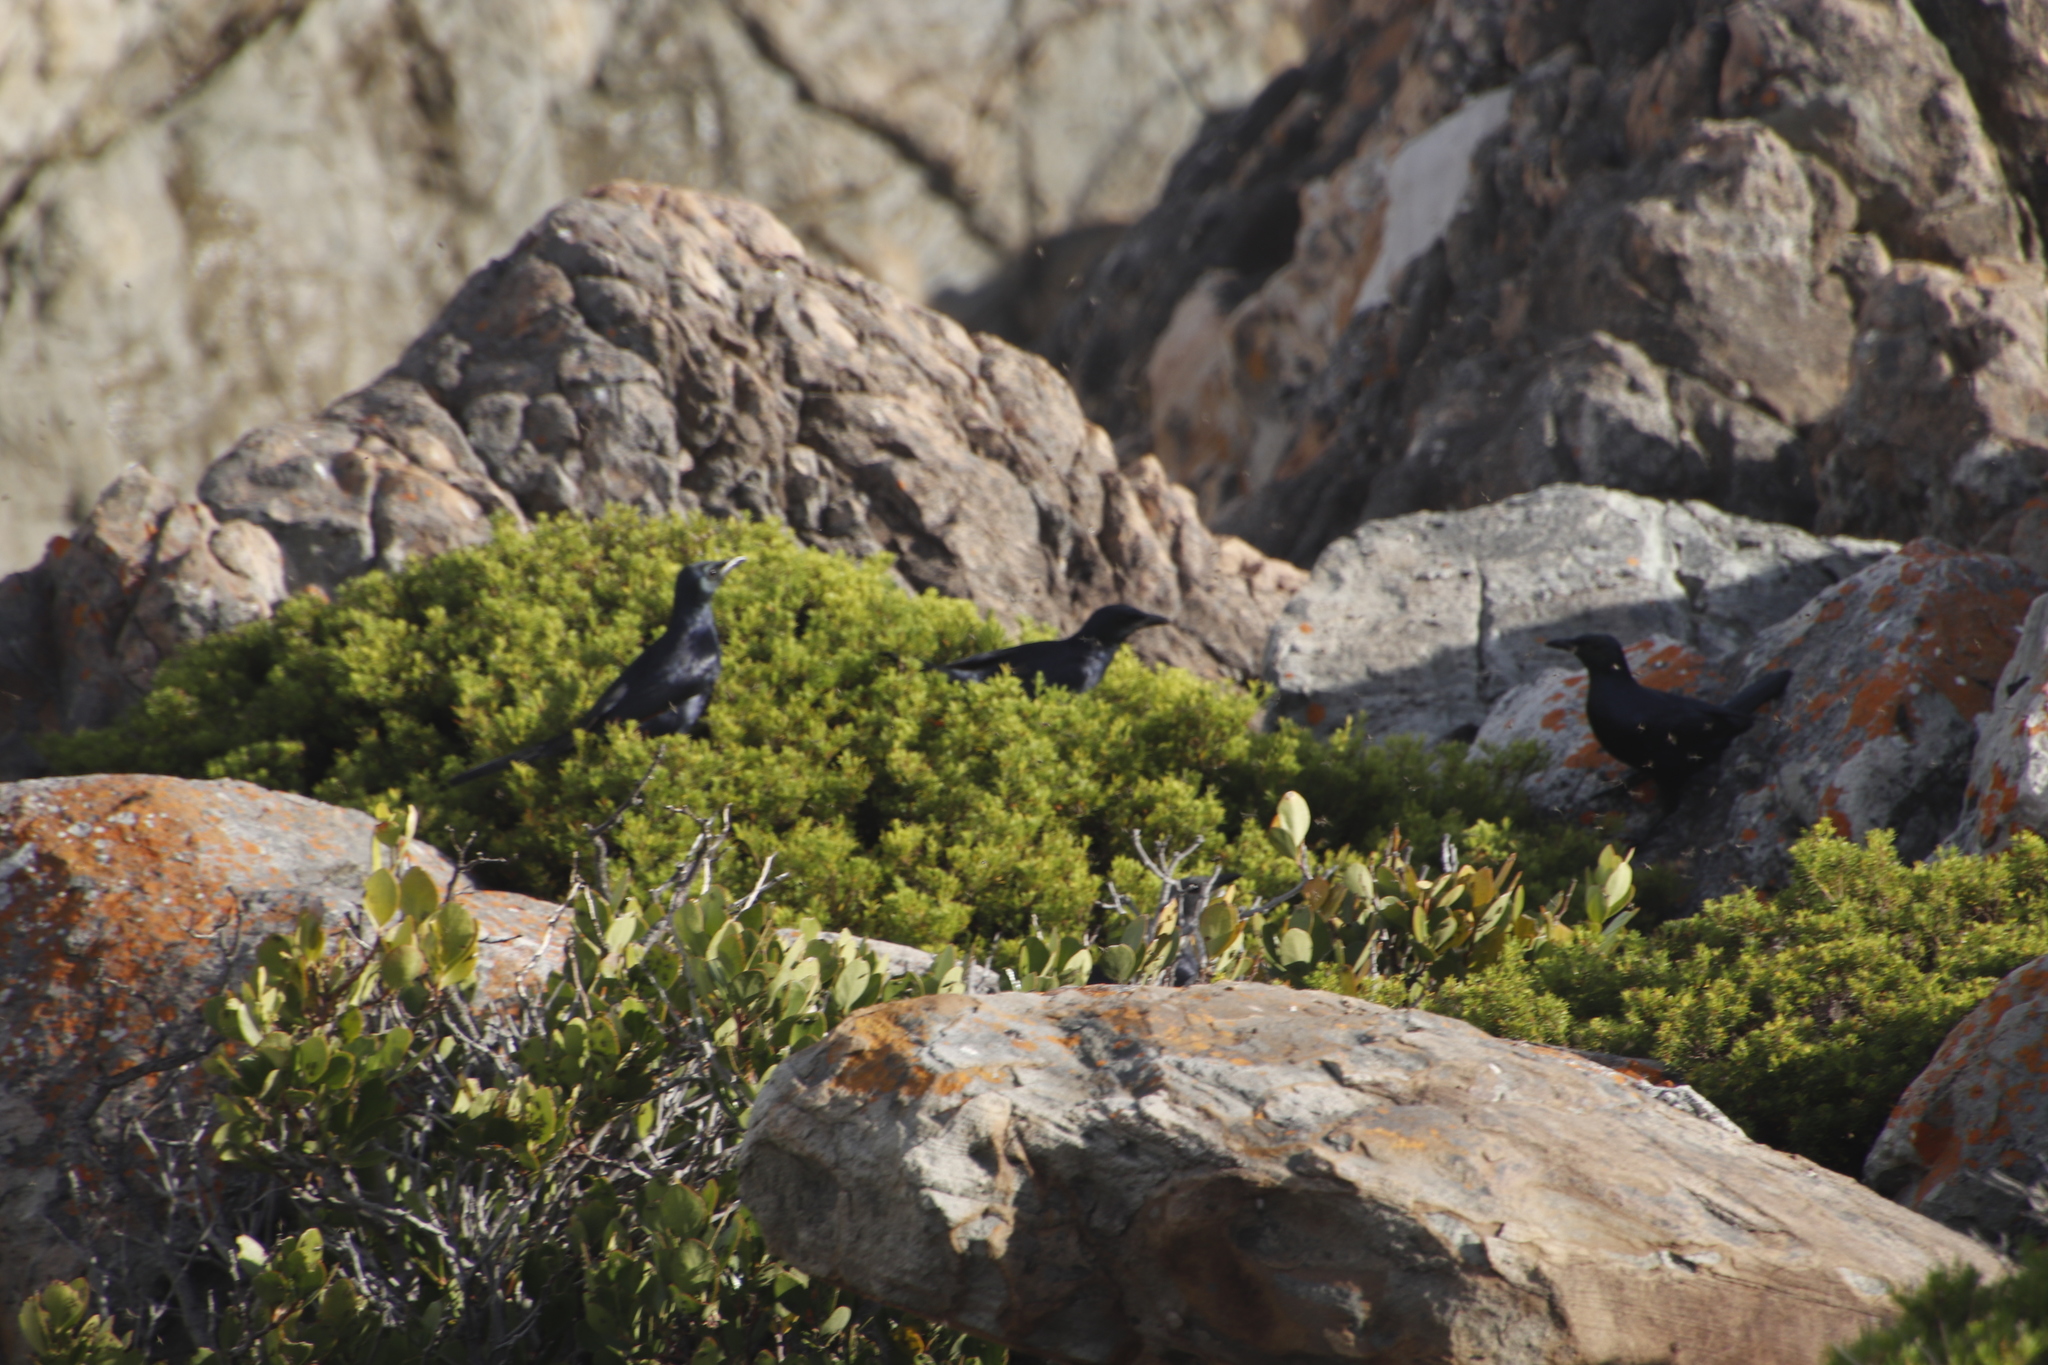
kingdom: Animalia
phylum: Chordata
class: Aves
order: Passeriformes
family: Sturnidae
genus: Onychognathus
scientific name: Onychognathus morio
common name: Red-winged starling
